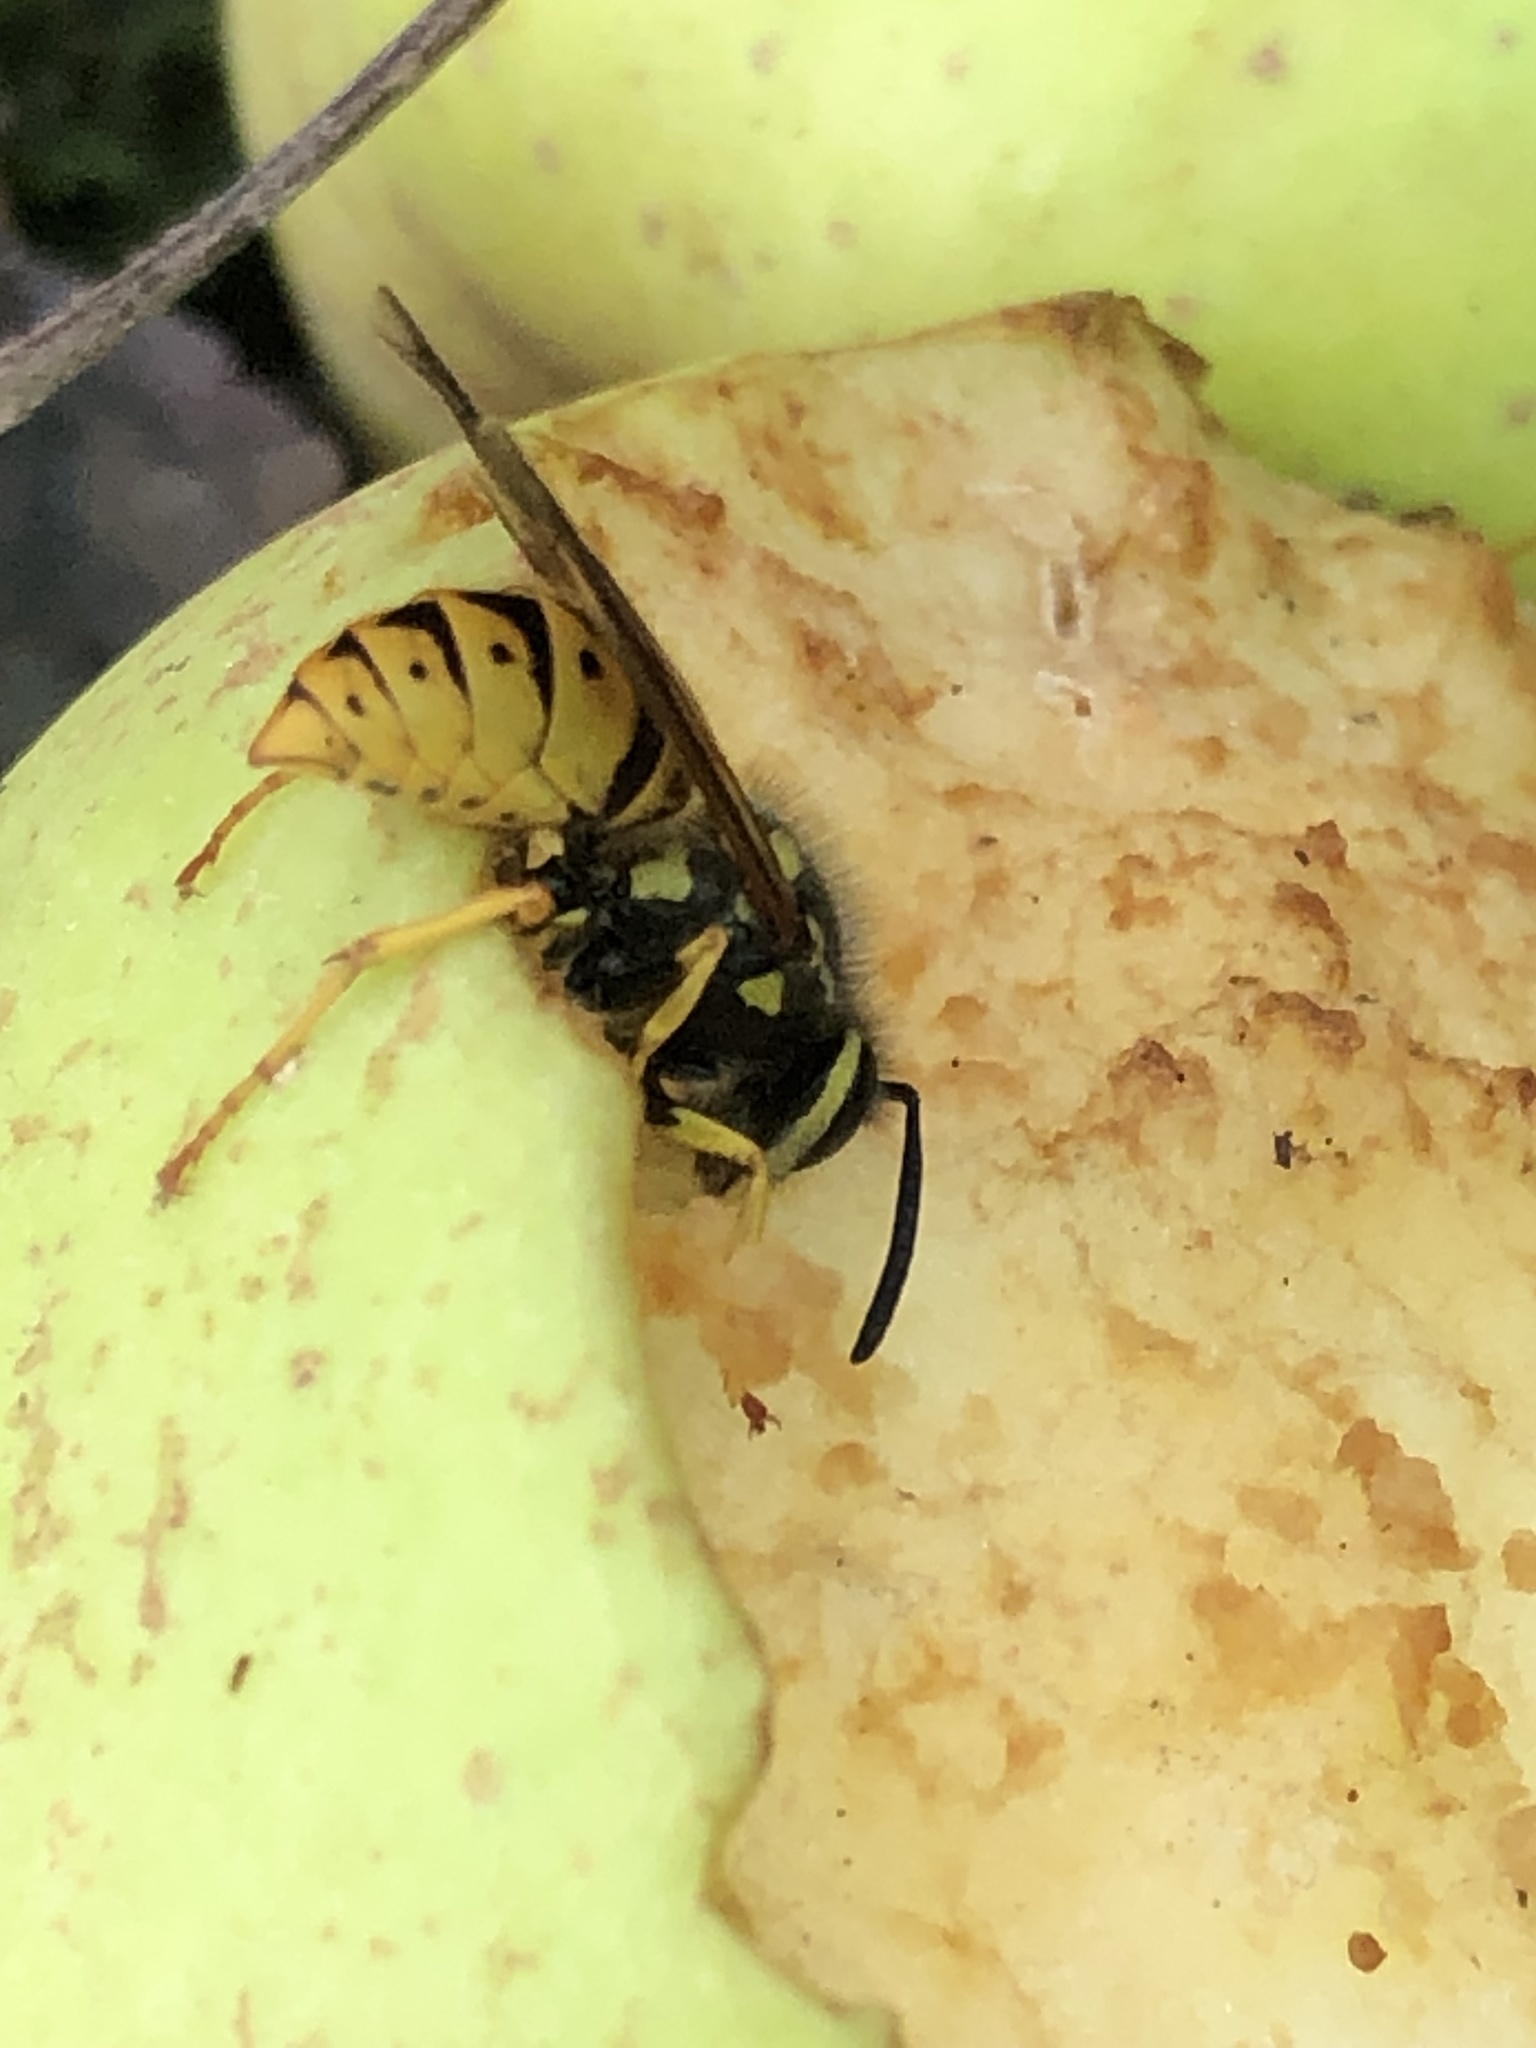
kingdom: Animalia
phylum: Arthropoda
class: Insecta
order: Hymenoptera
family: Vespidae
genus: Vespula
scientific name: Vespula germanica
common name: German wasp
